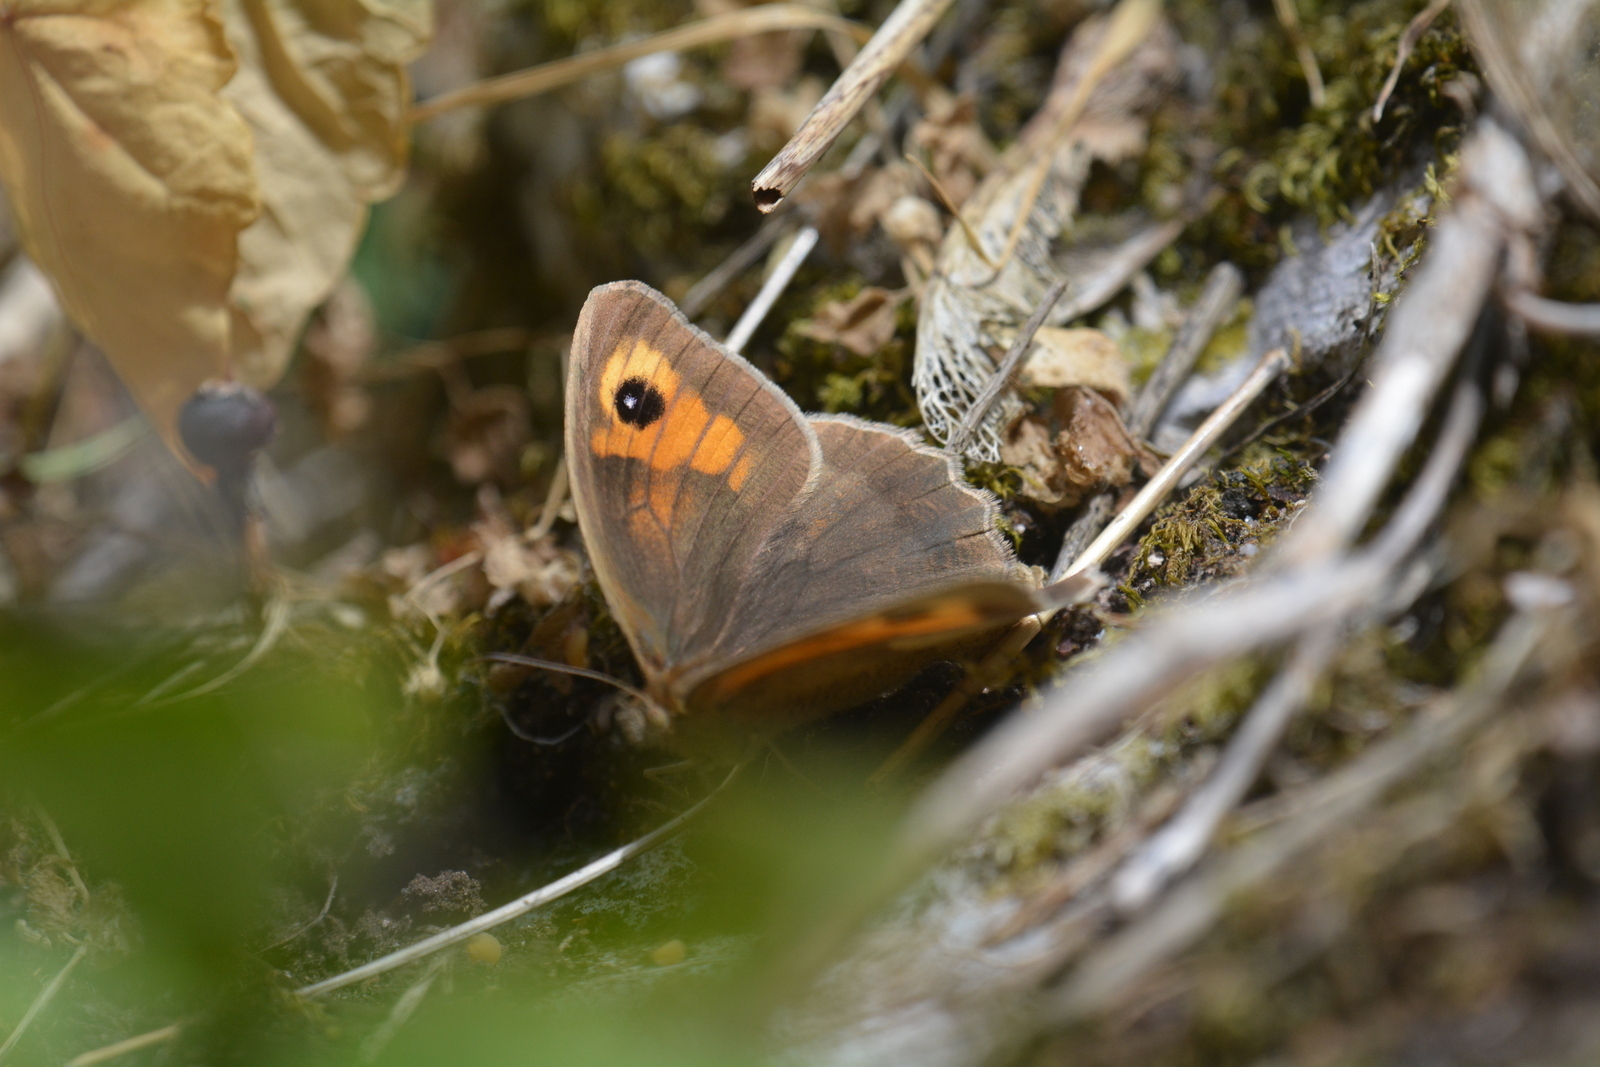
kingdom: Animalia
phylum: Arthropoda
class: Insecta
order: Lepidoptera
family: Nymphalidae
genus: Maniola
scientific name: Maniola jurtina
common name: Meadow brown
